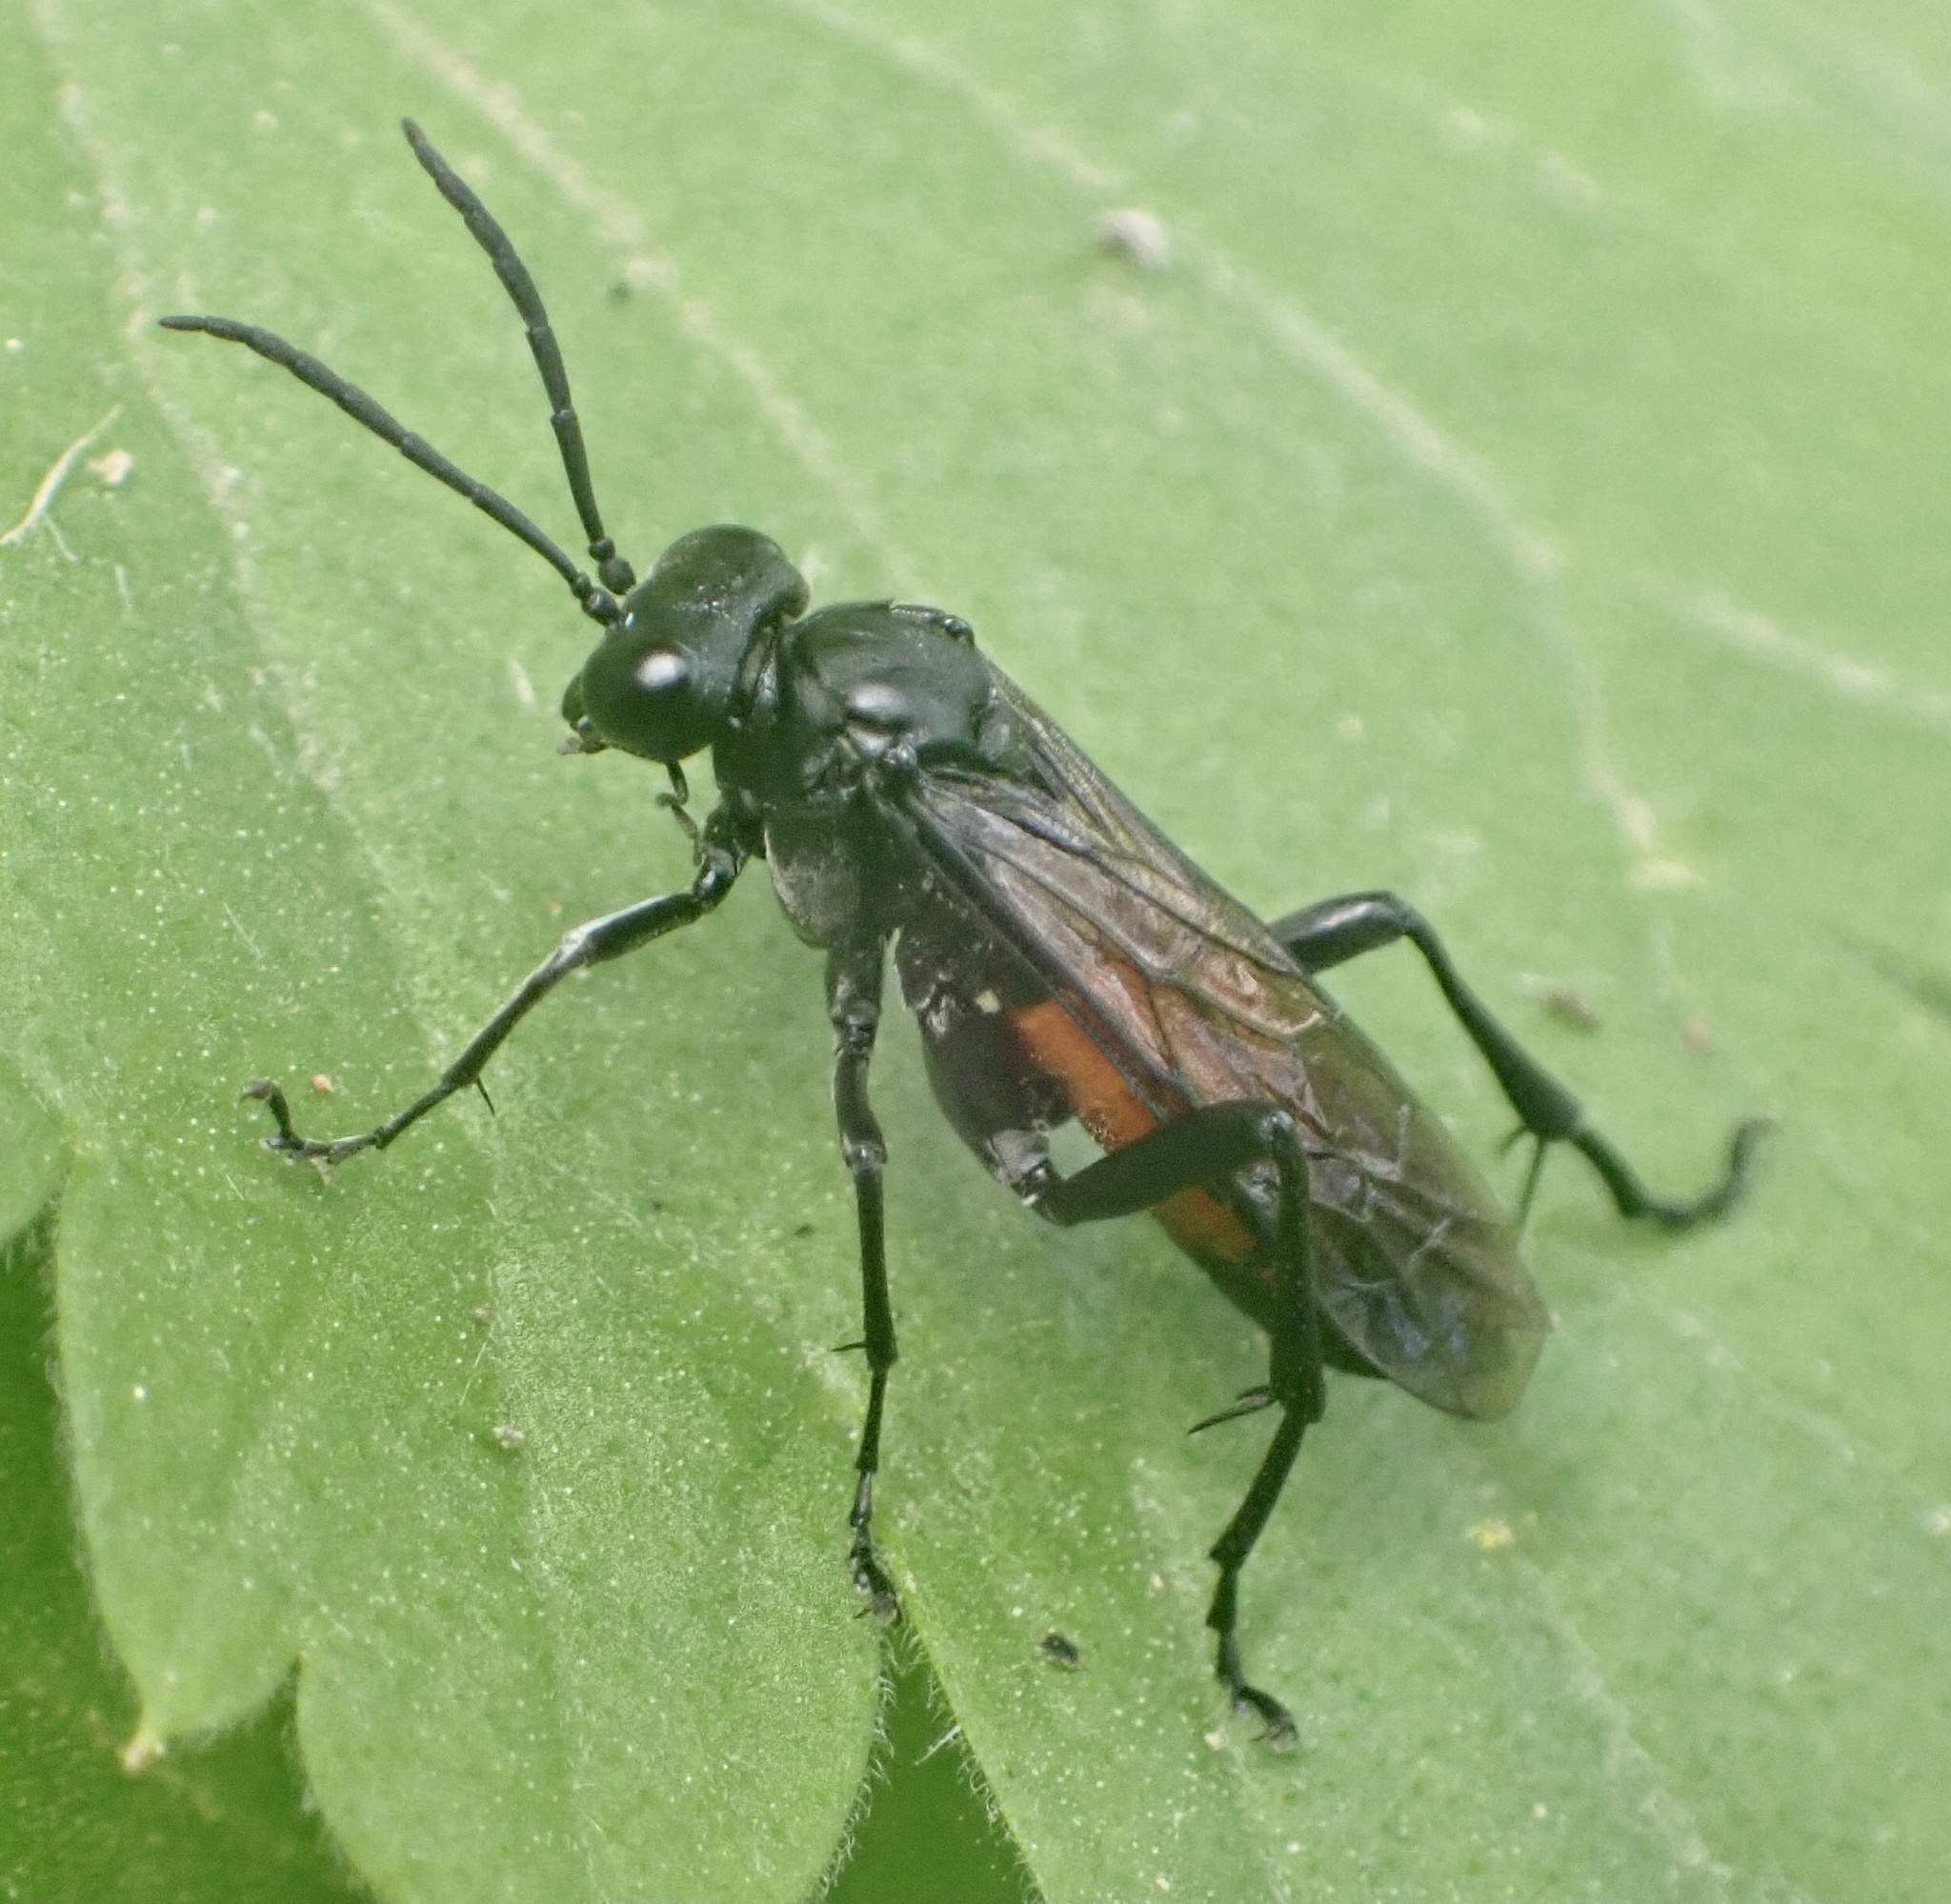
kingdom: Animalia
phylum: Arthropoda
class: Insecta
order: Hymenoptera
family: Tenthredinidae
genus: Macrophya
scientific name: Macrophya annulata
